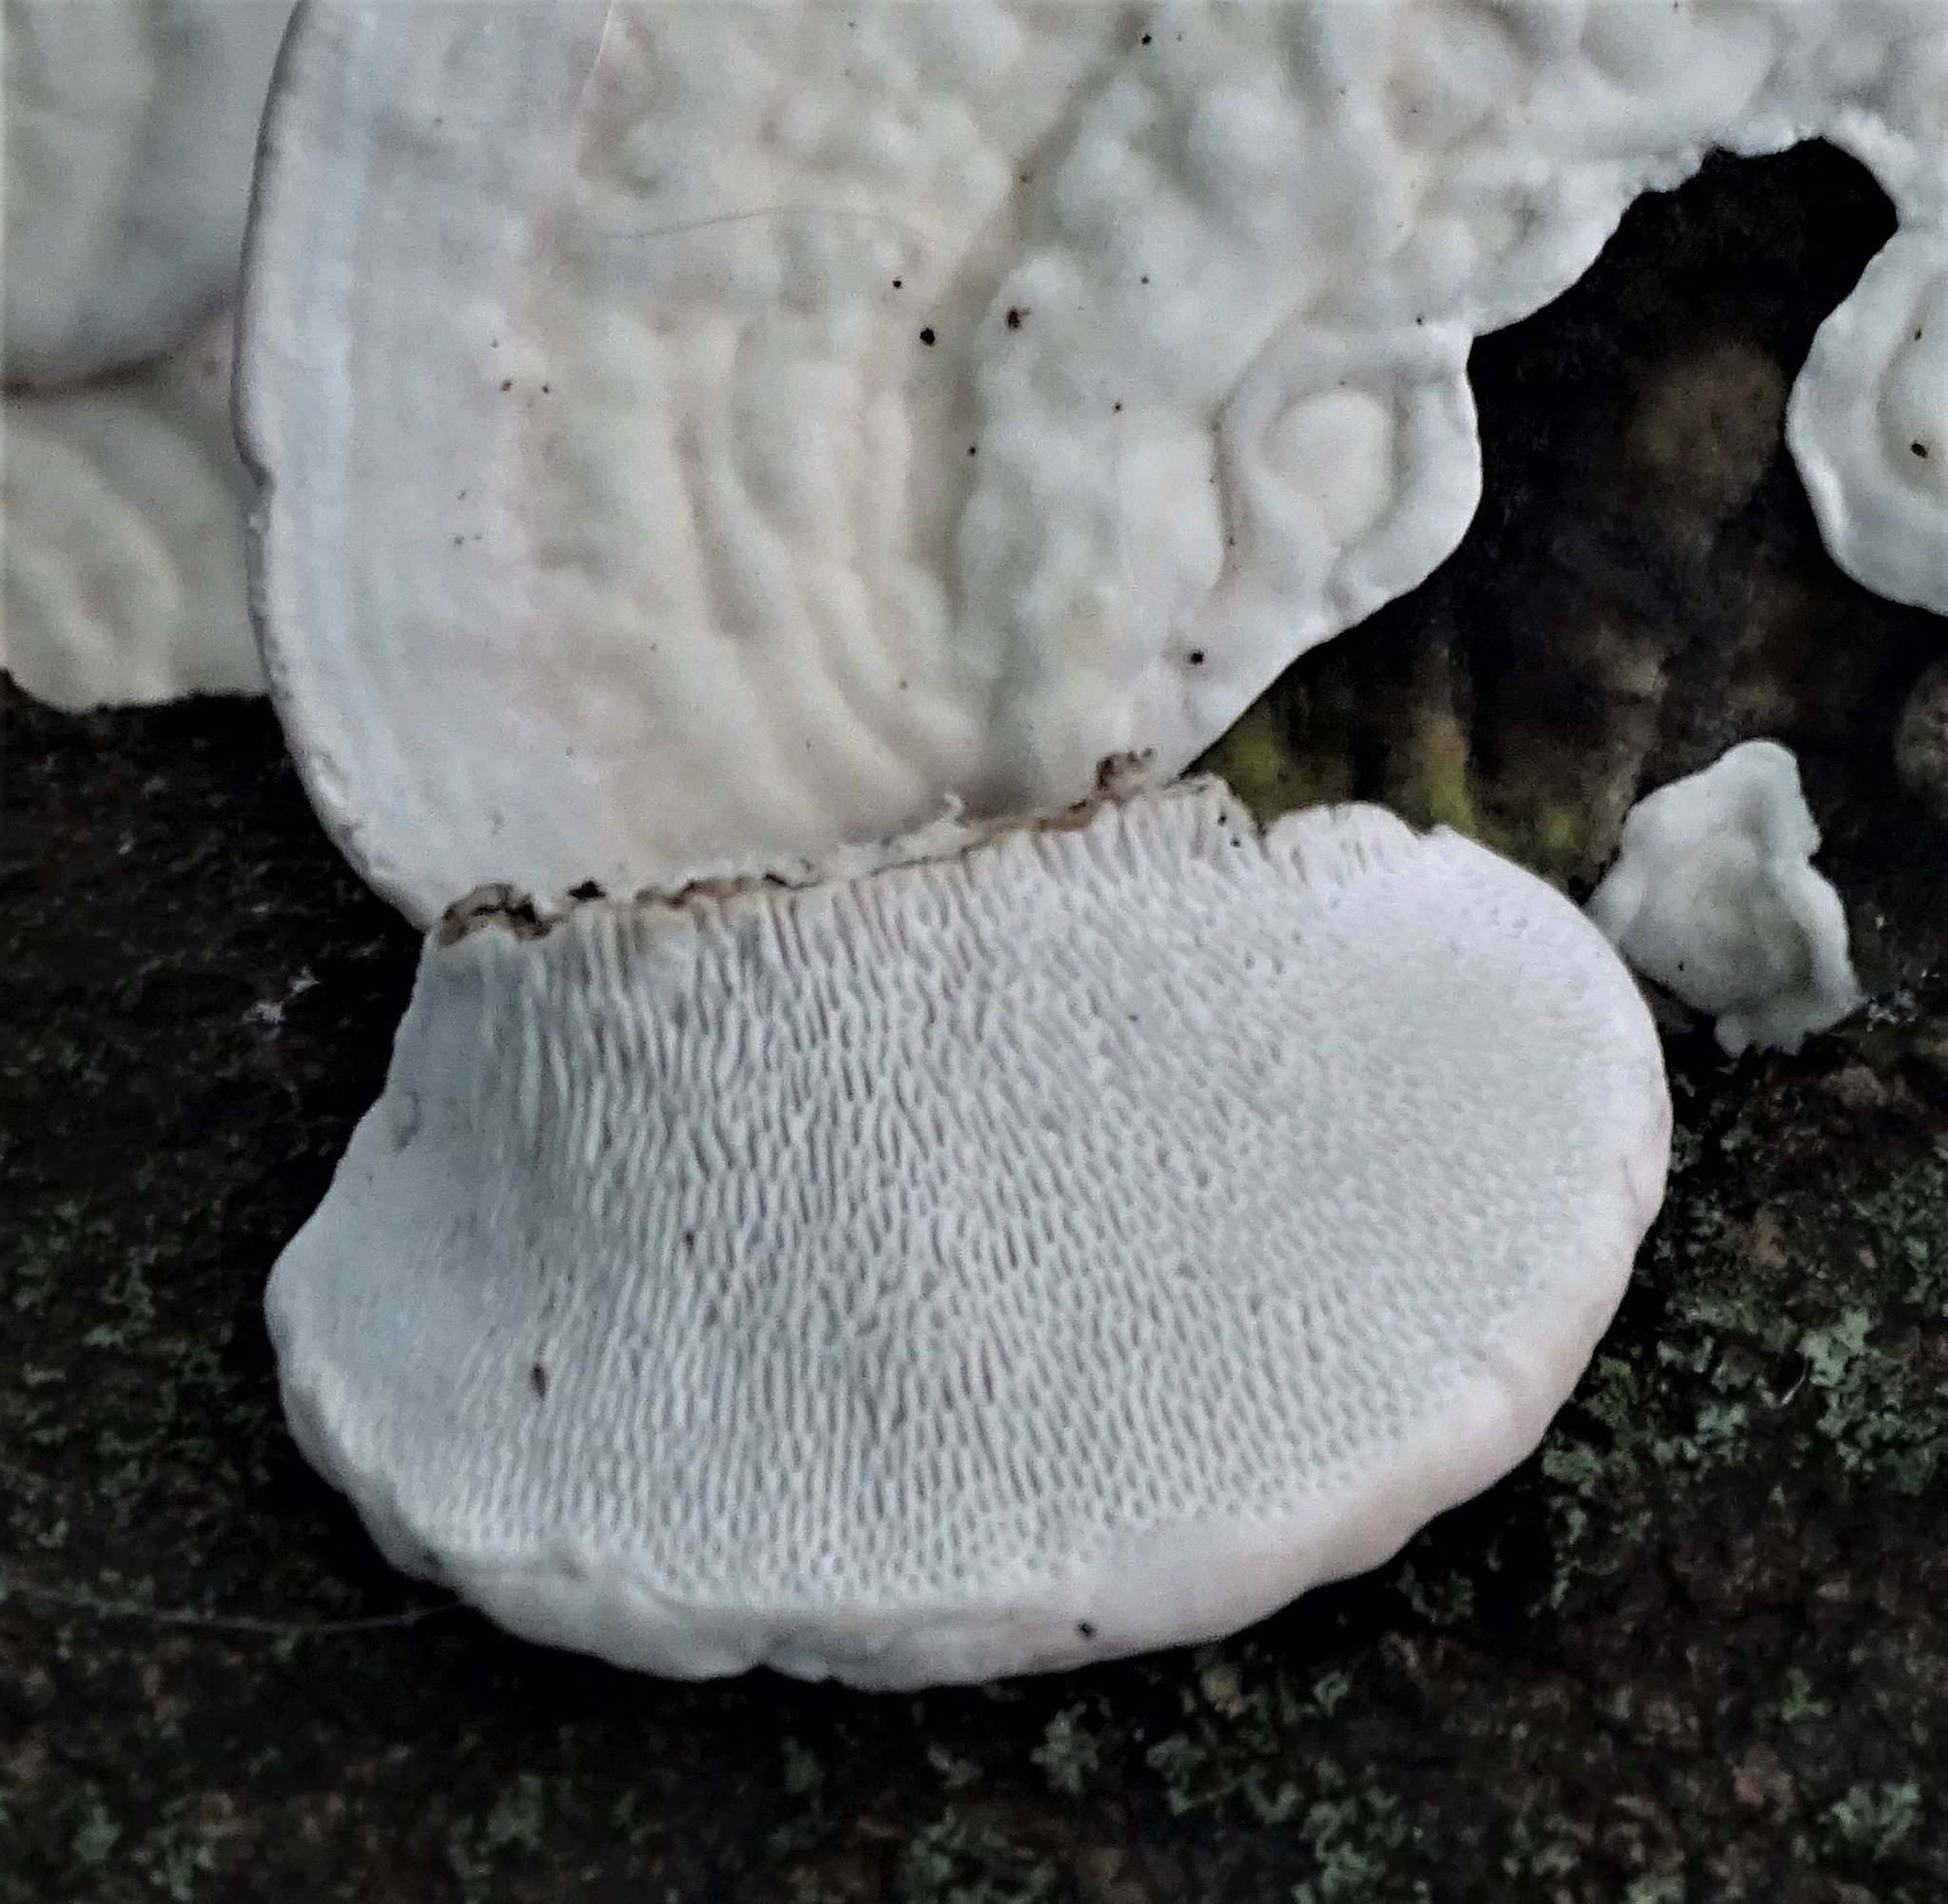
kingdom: Fungi
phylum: Basidiomycota
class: Agaricomycetes
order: Polyporales
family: Polyporaceae
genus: Trametes
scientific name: Trametes gibbosa
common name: Lumpy bracket
